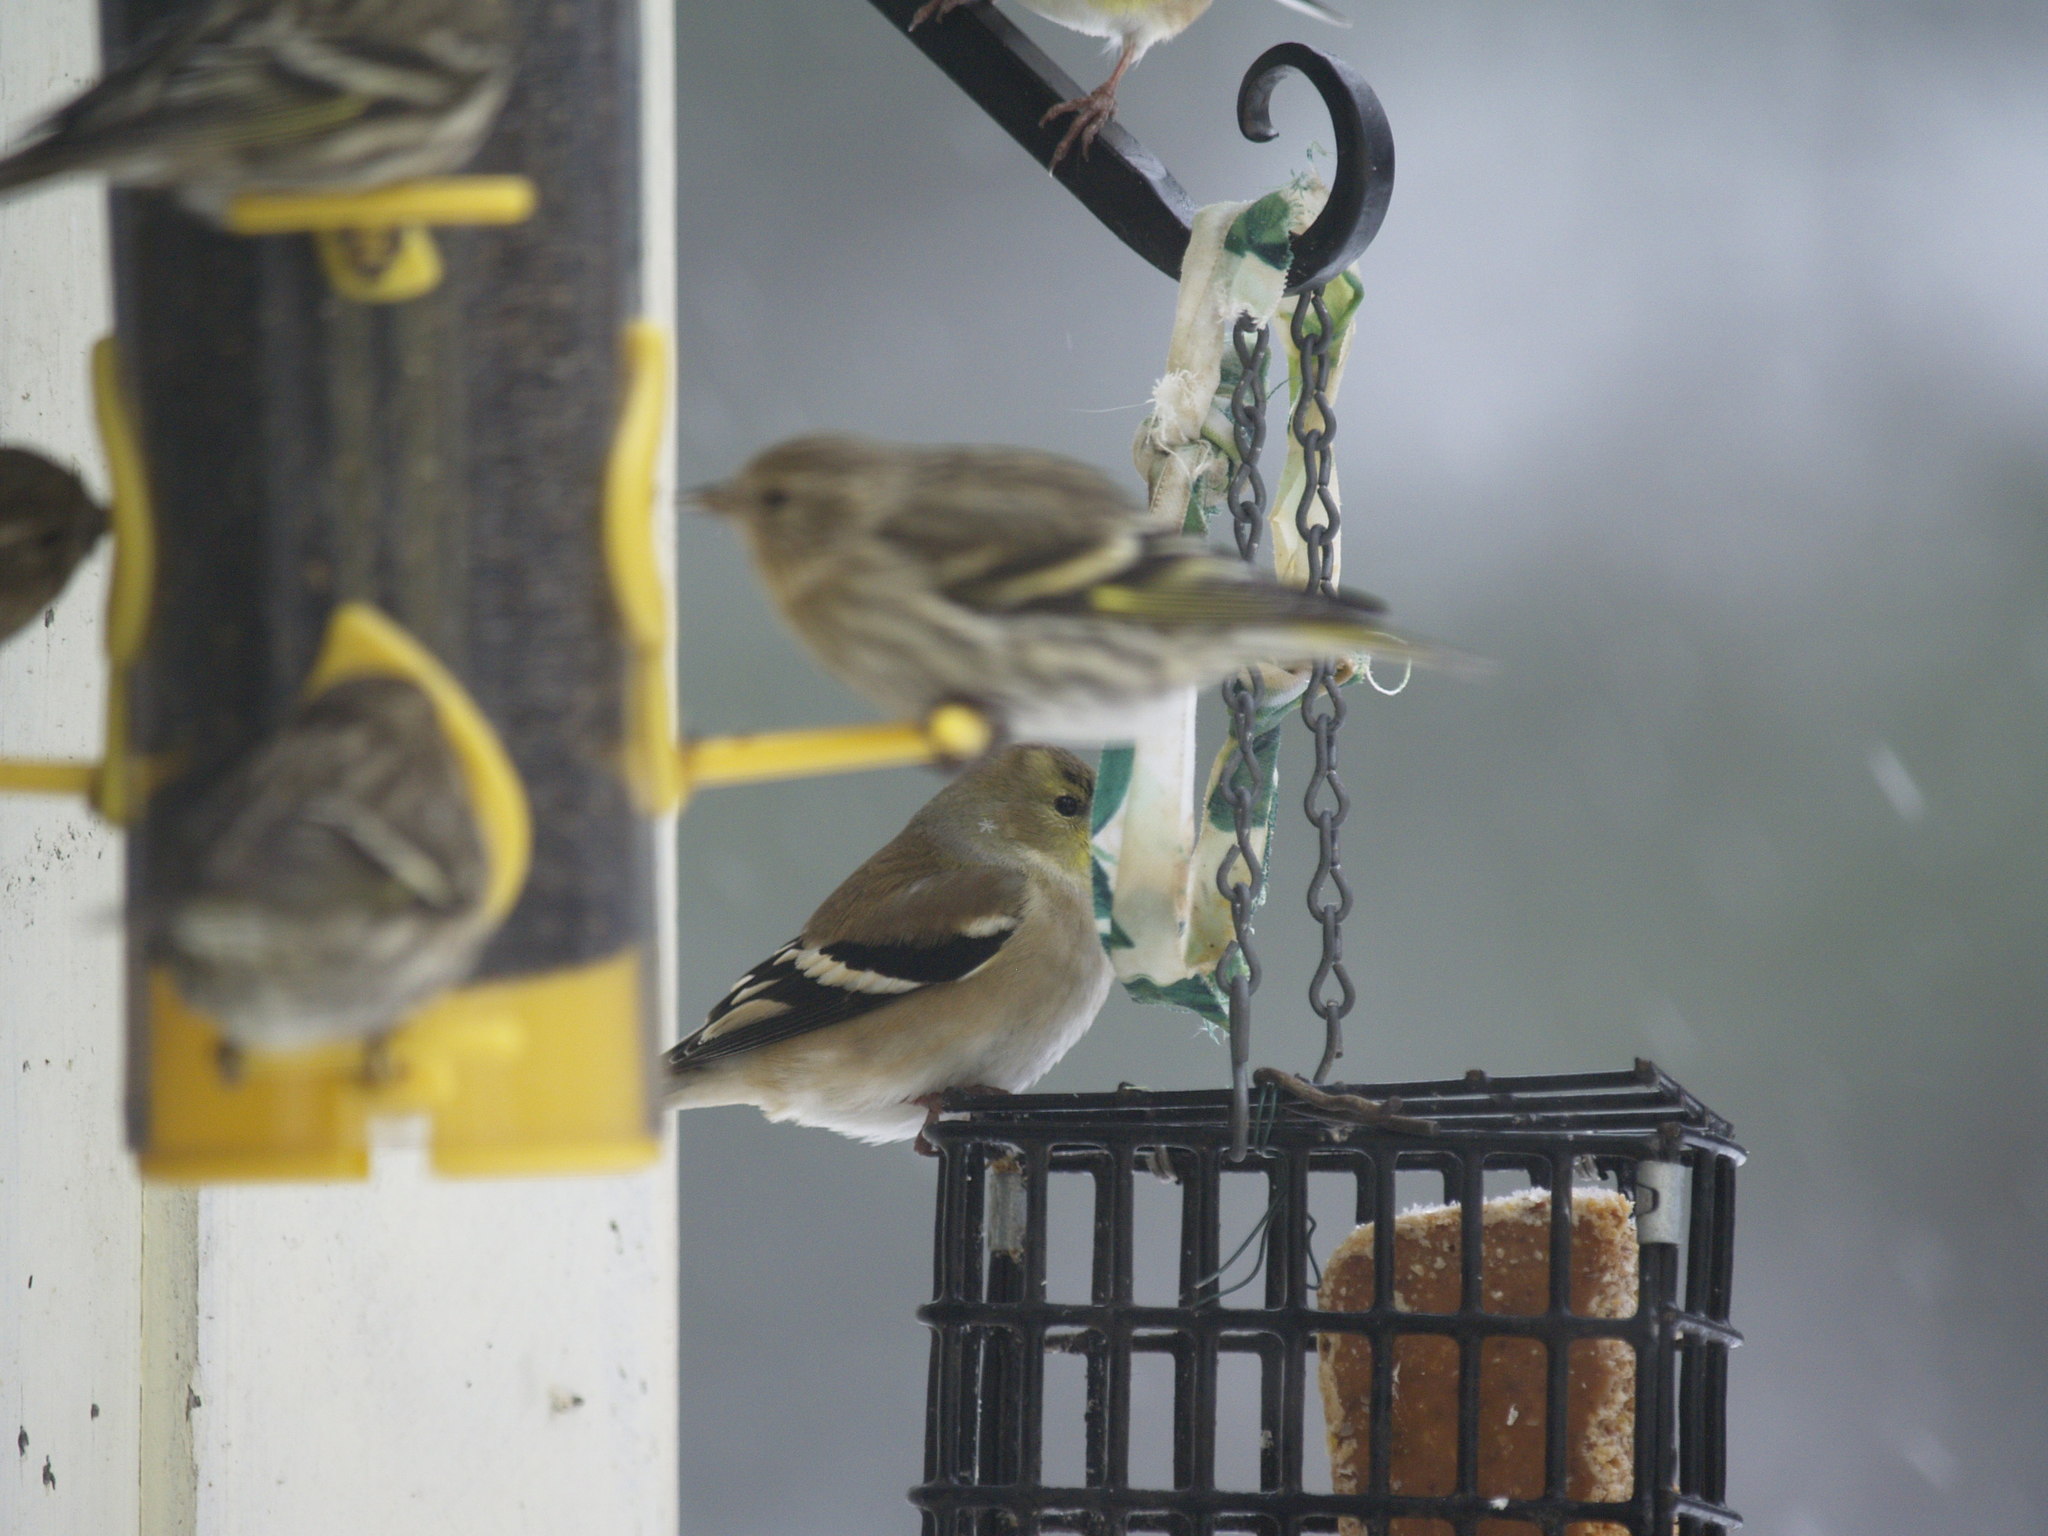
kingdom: Animalia
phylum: Chordata
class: Aves
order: Passeriformes
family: Fringillidae
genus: Spinus
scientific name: Spinus tristis
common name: American goldfinch
